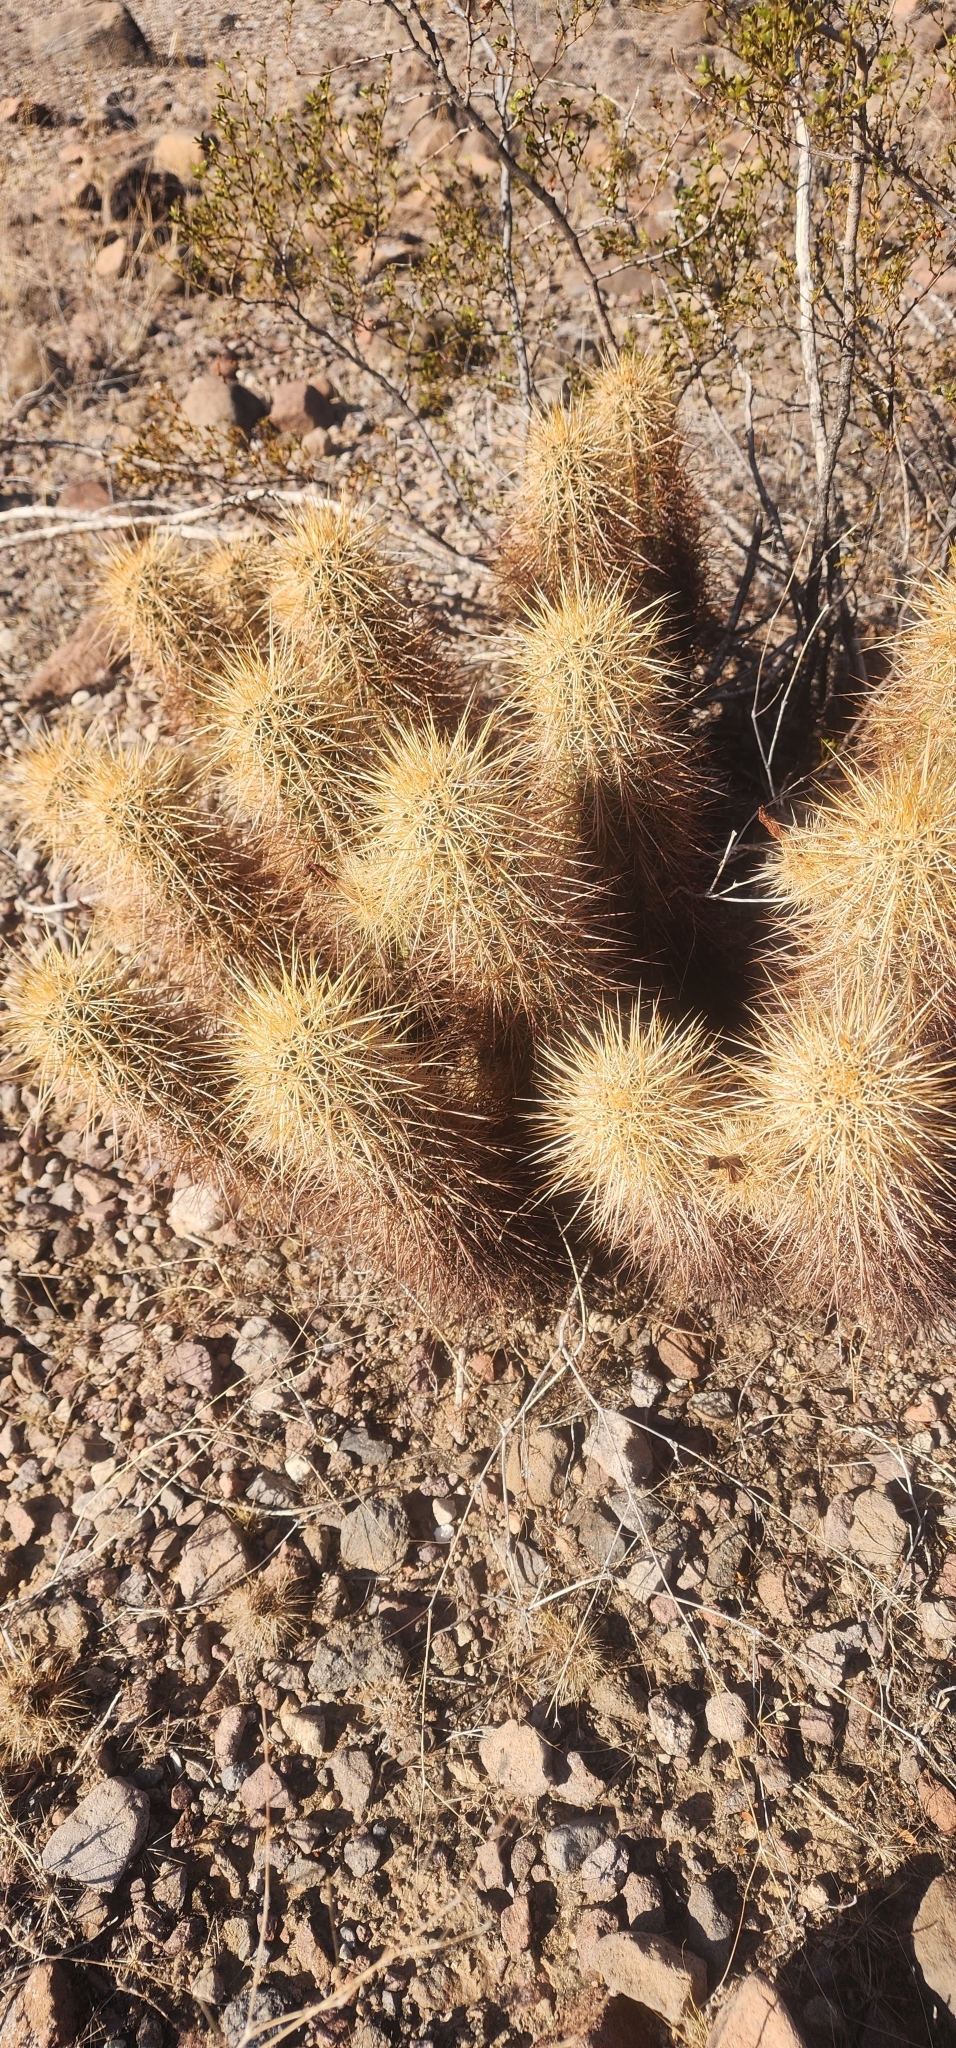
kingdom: Plantae
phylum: Tracheophyta
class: Magnoliopsida
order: Caryophyllales
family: Cactaceae
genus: Echinocereus
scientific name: Echinocereus engelmannii
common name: Engelmann's hedgehog cactus
